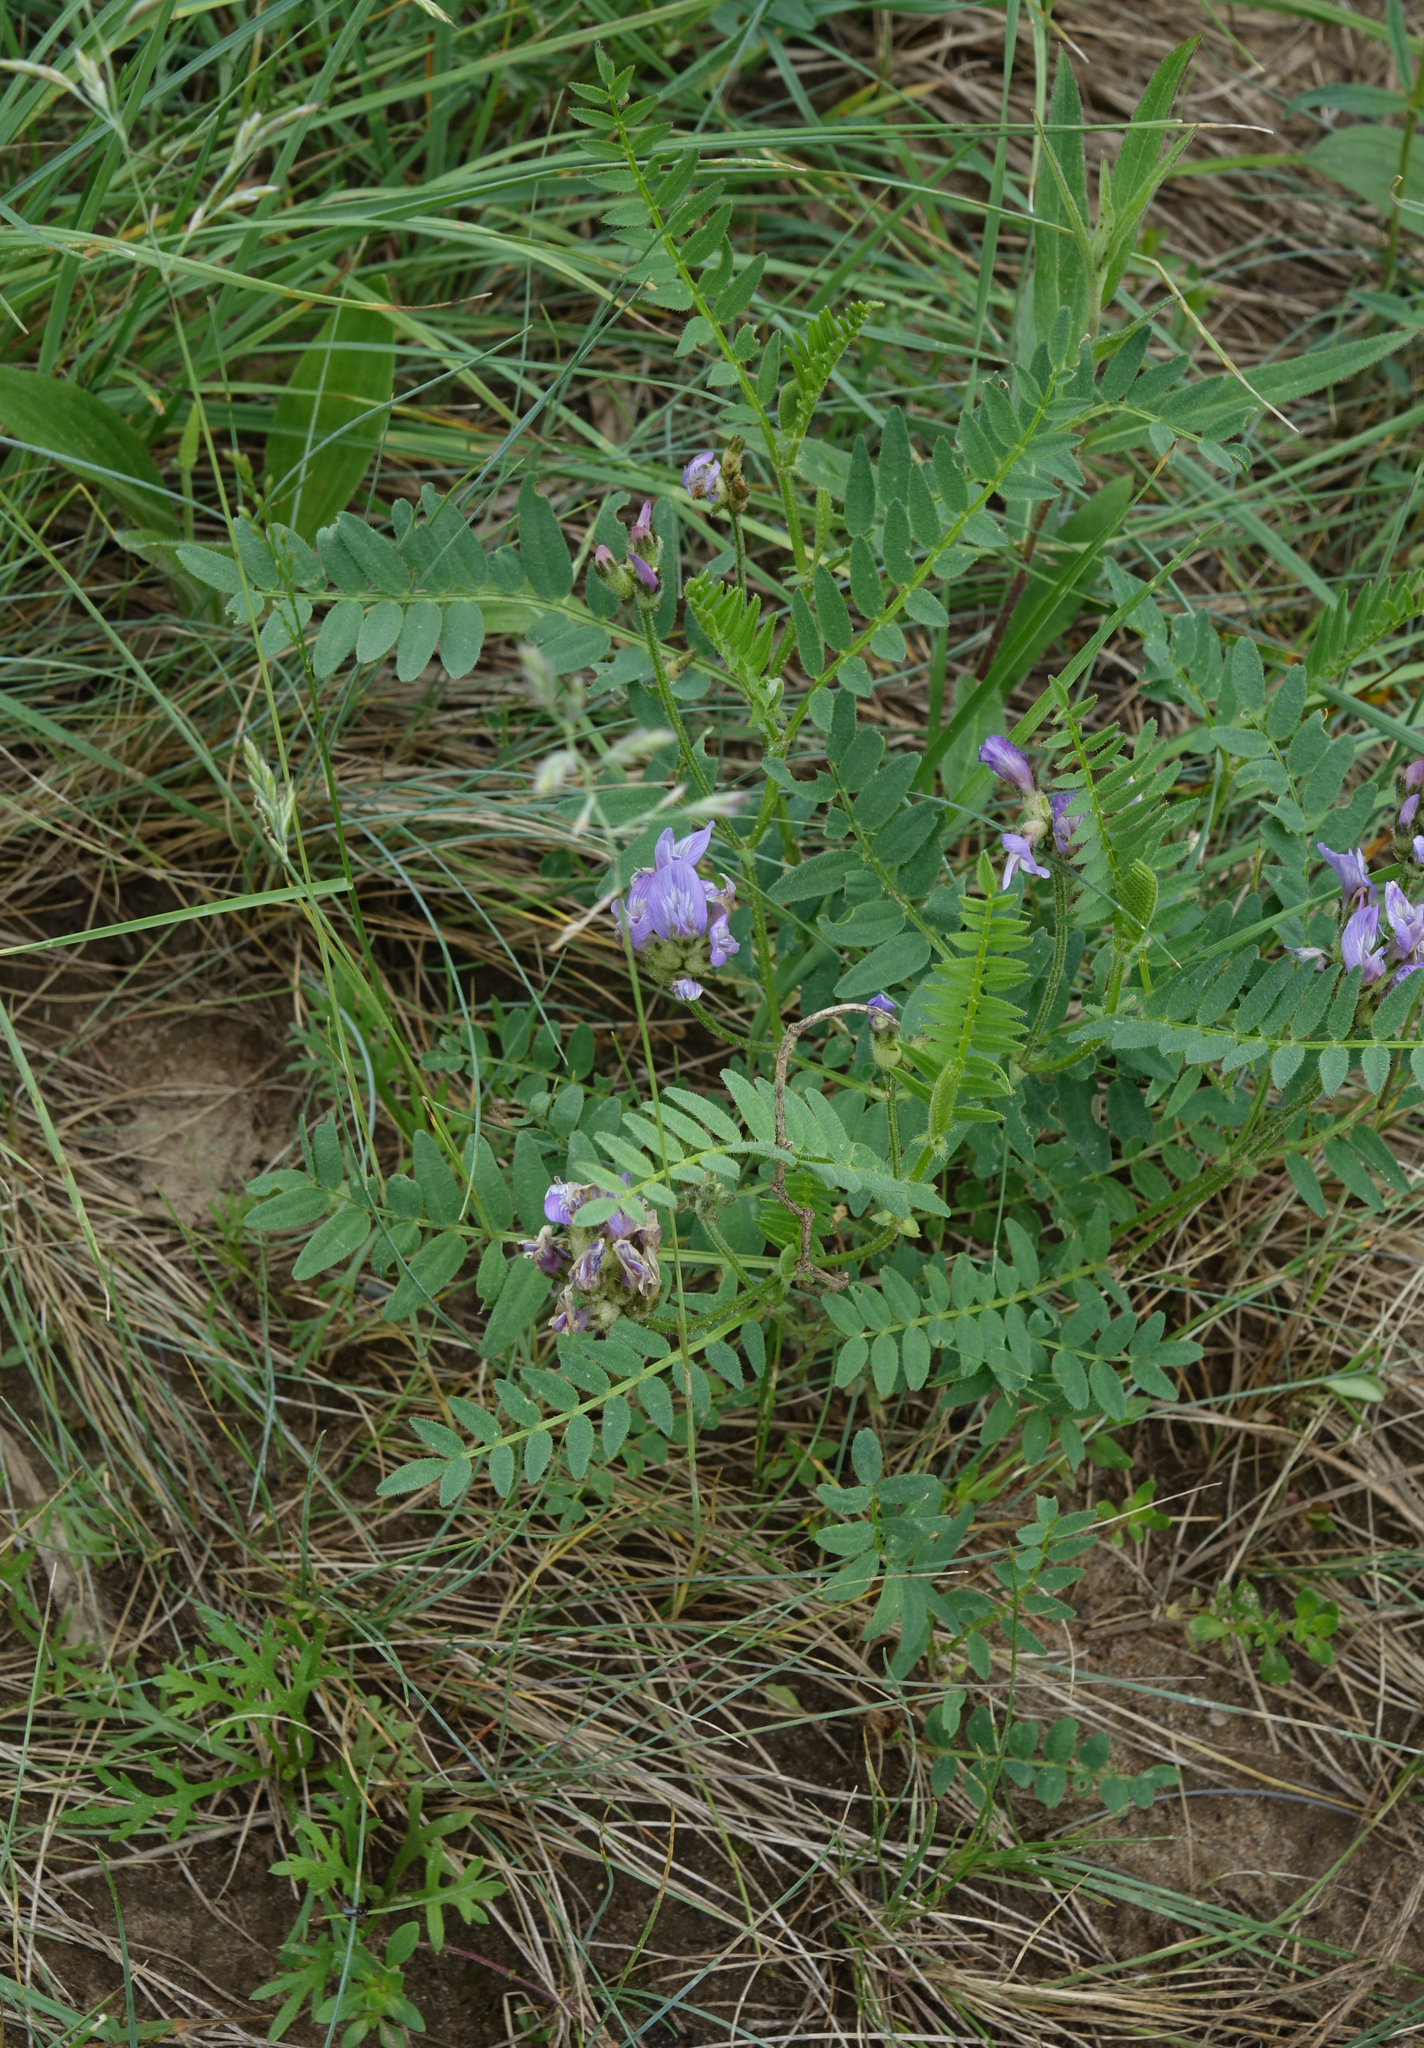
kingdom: Plantae
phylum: Tracheophyta
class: Magnoliopsida
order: Fabales
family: Fabaceae
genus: Astragalus
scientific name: Astragalus danicus
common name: Purple milk-vetch
